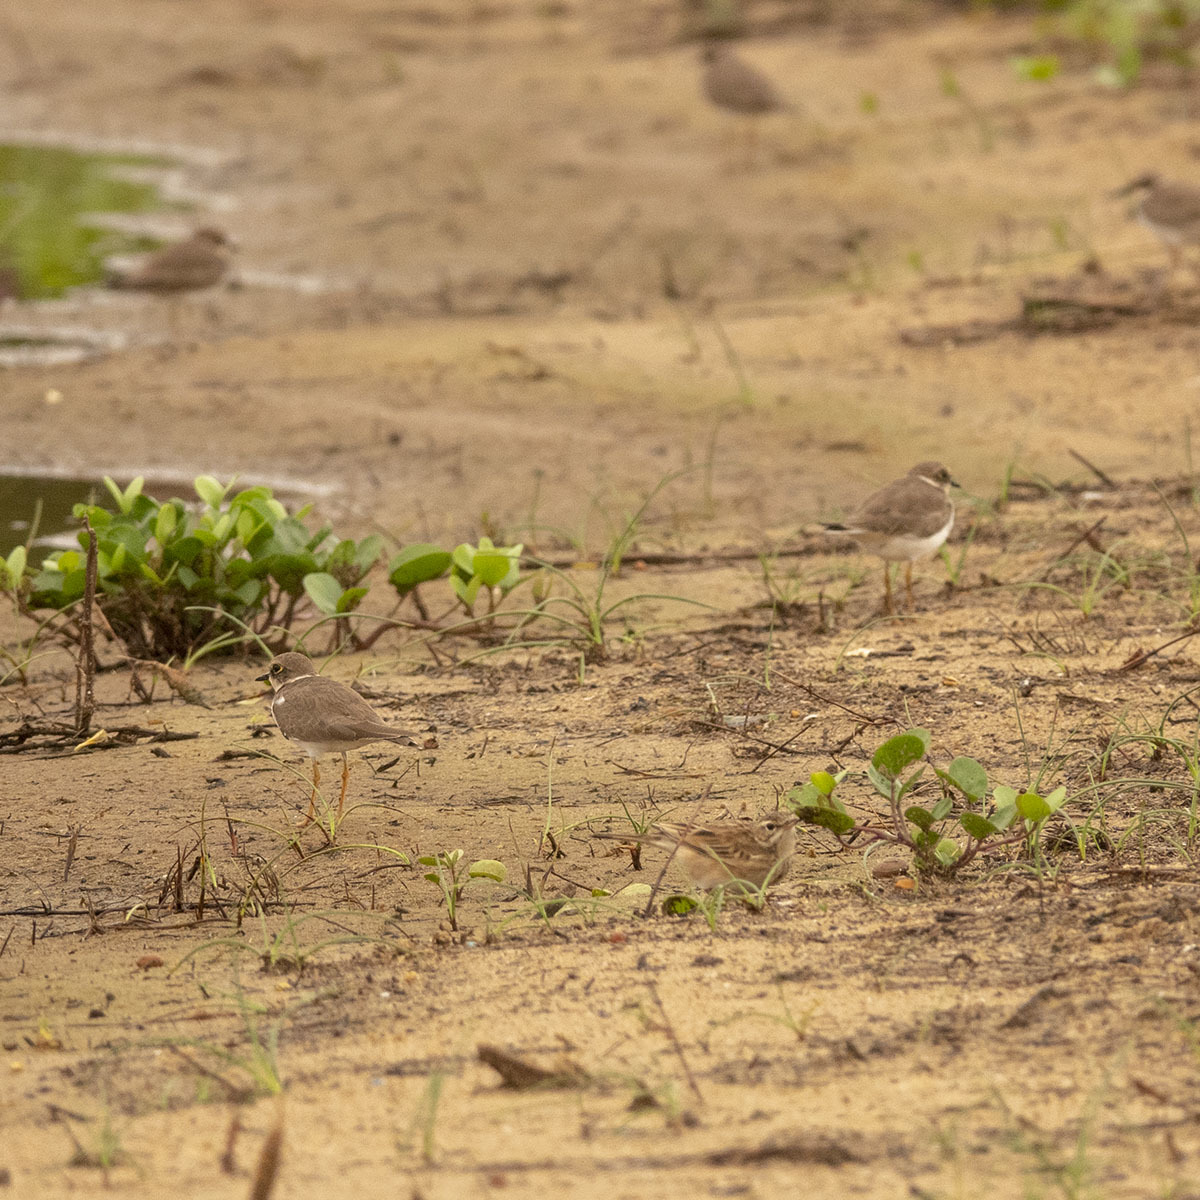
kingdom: Animalia
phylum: Chordata
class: Aves
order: Charadriiformes
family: Charadriidae
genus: Charadrius
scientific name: Charadrius dubius
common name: Little ringed plover
